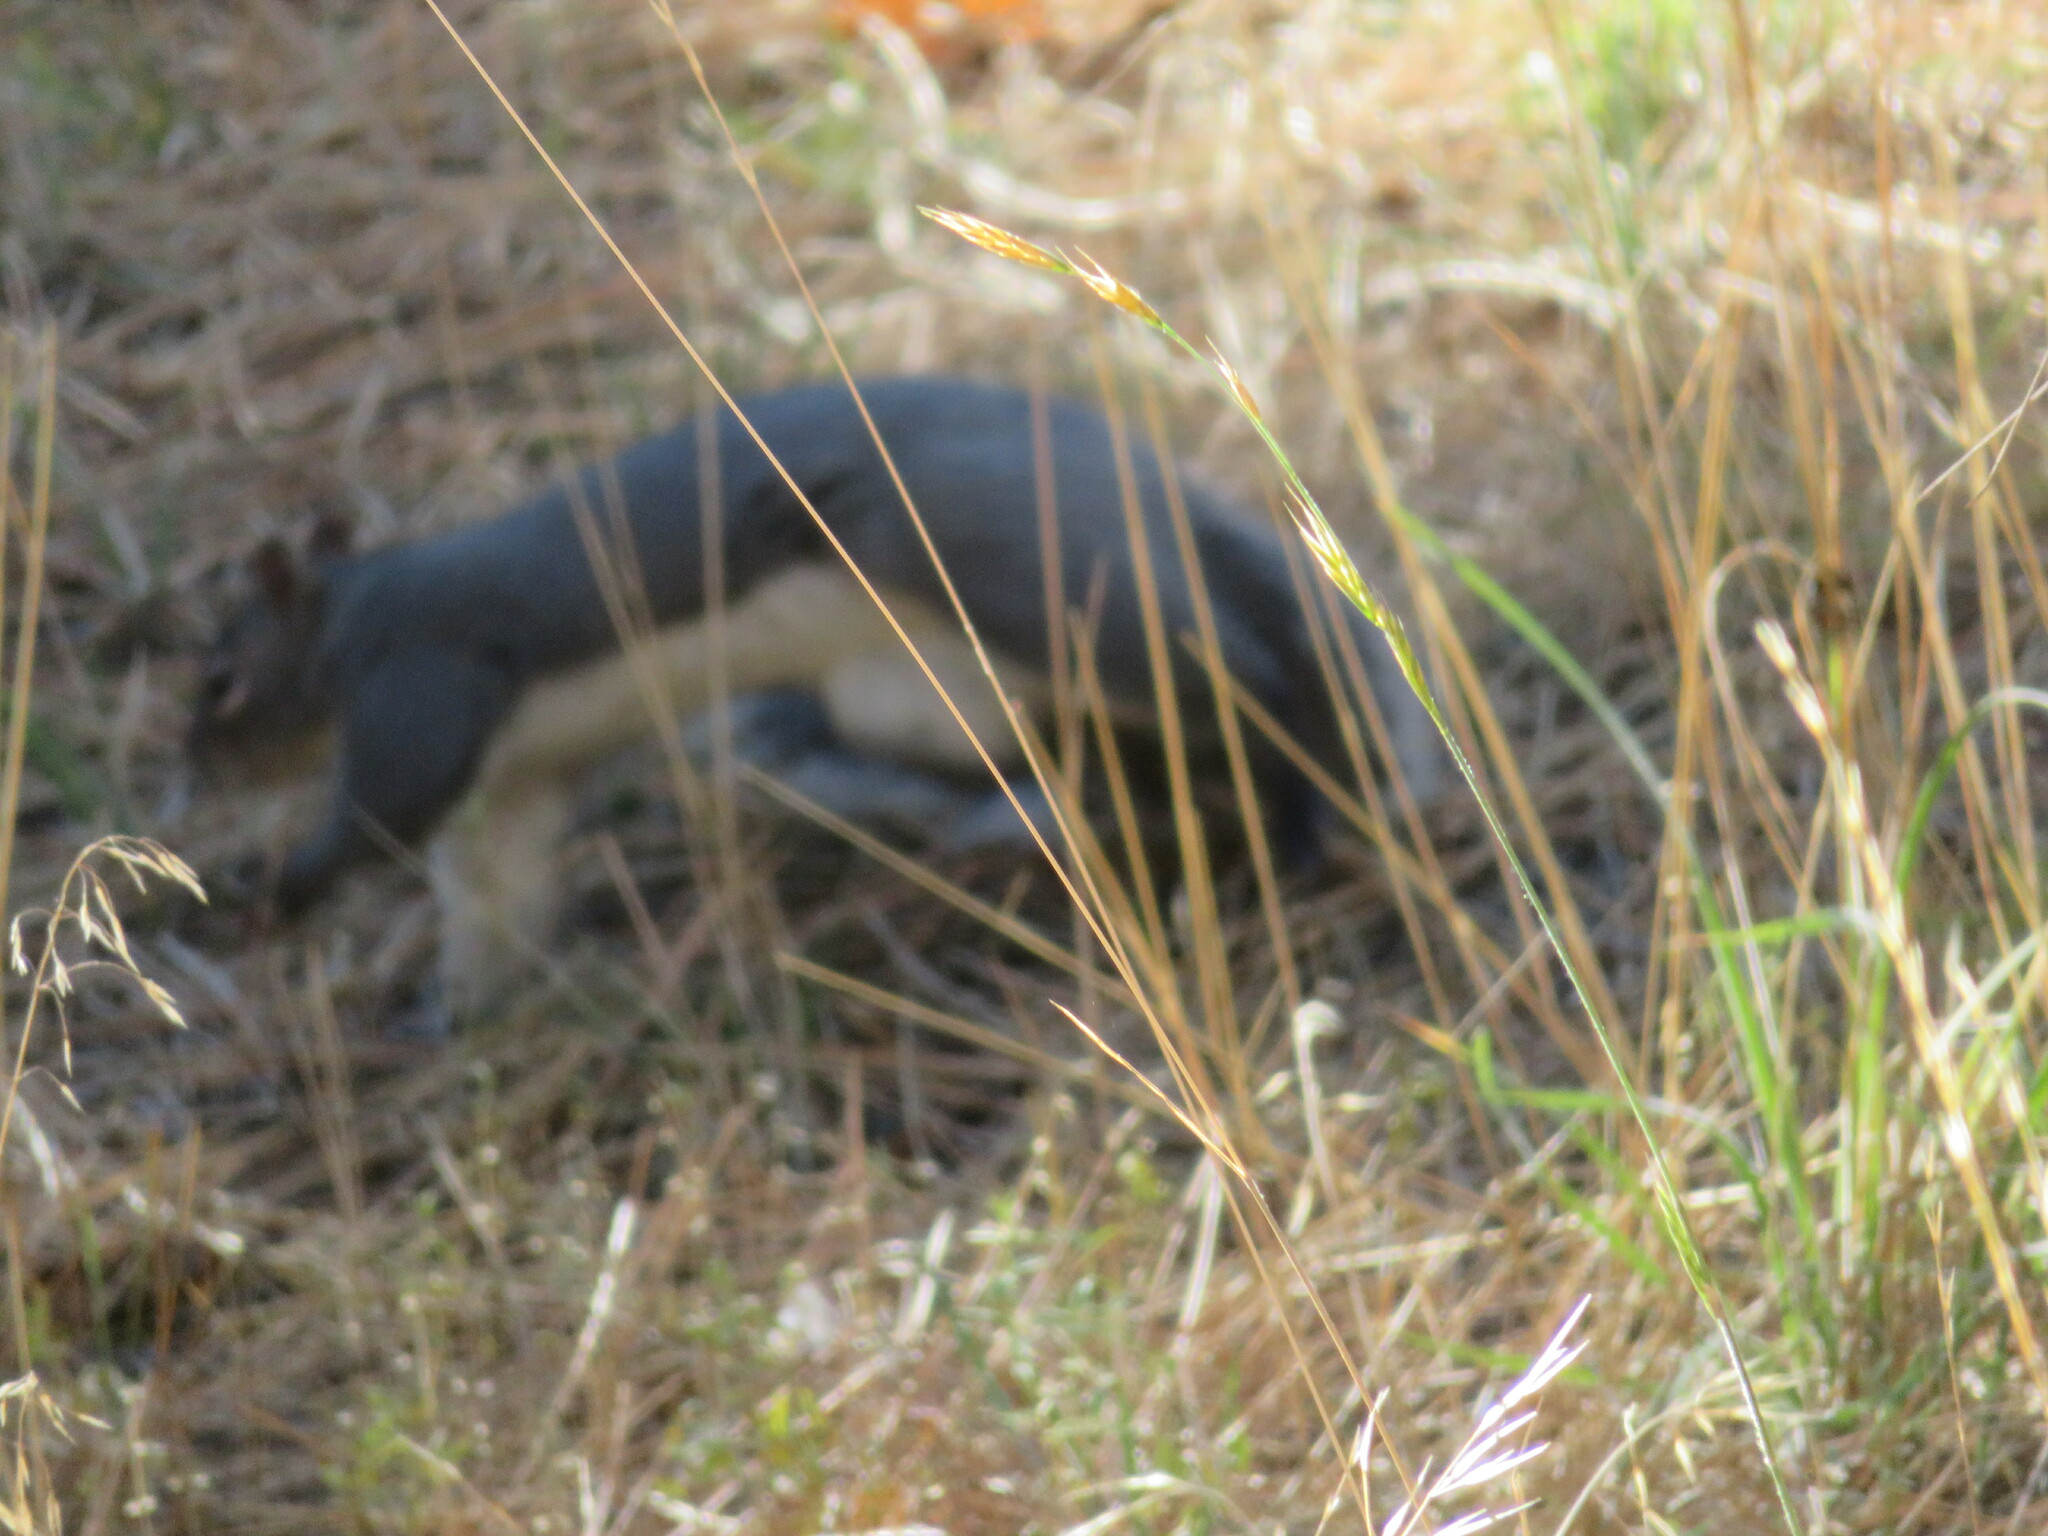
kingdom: Animalia
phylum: Chordata
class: Mammalia
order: Rodentia
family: Sciuridae
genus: Sciurus
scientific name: Sciurus griseus
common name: Western gray squirrel
